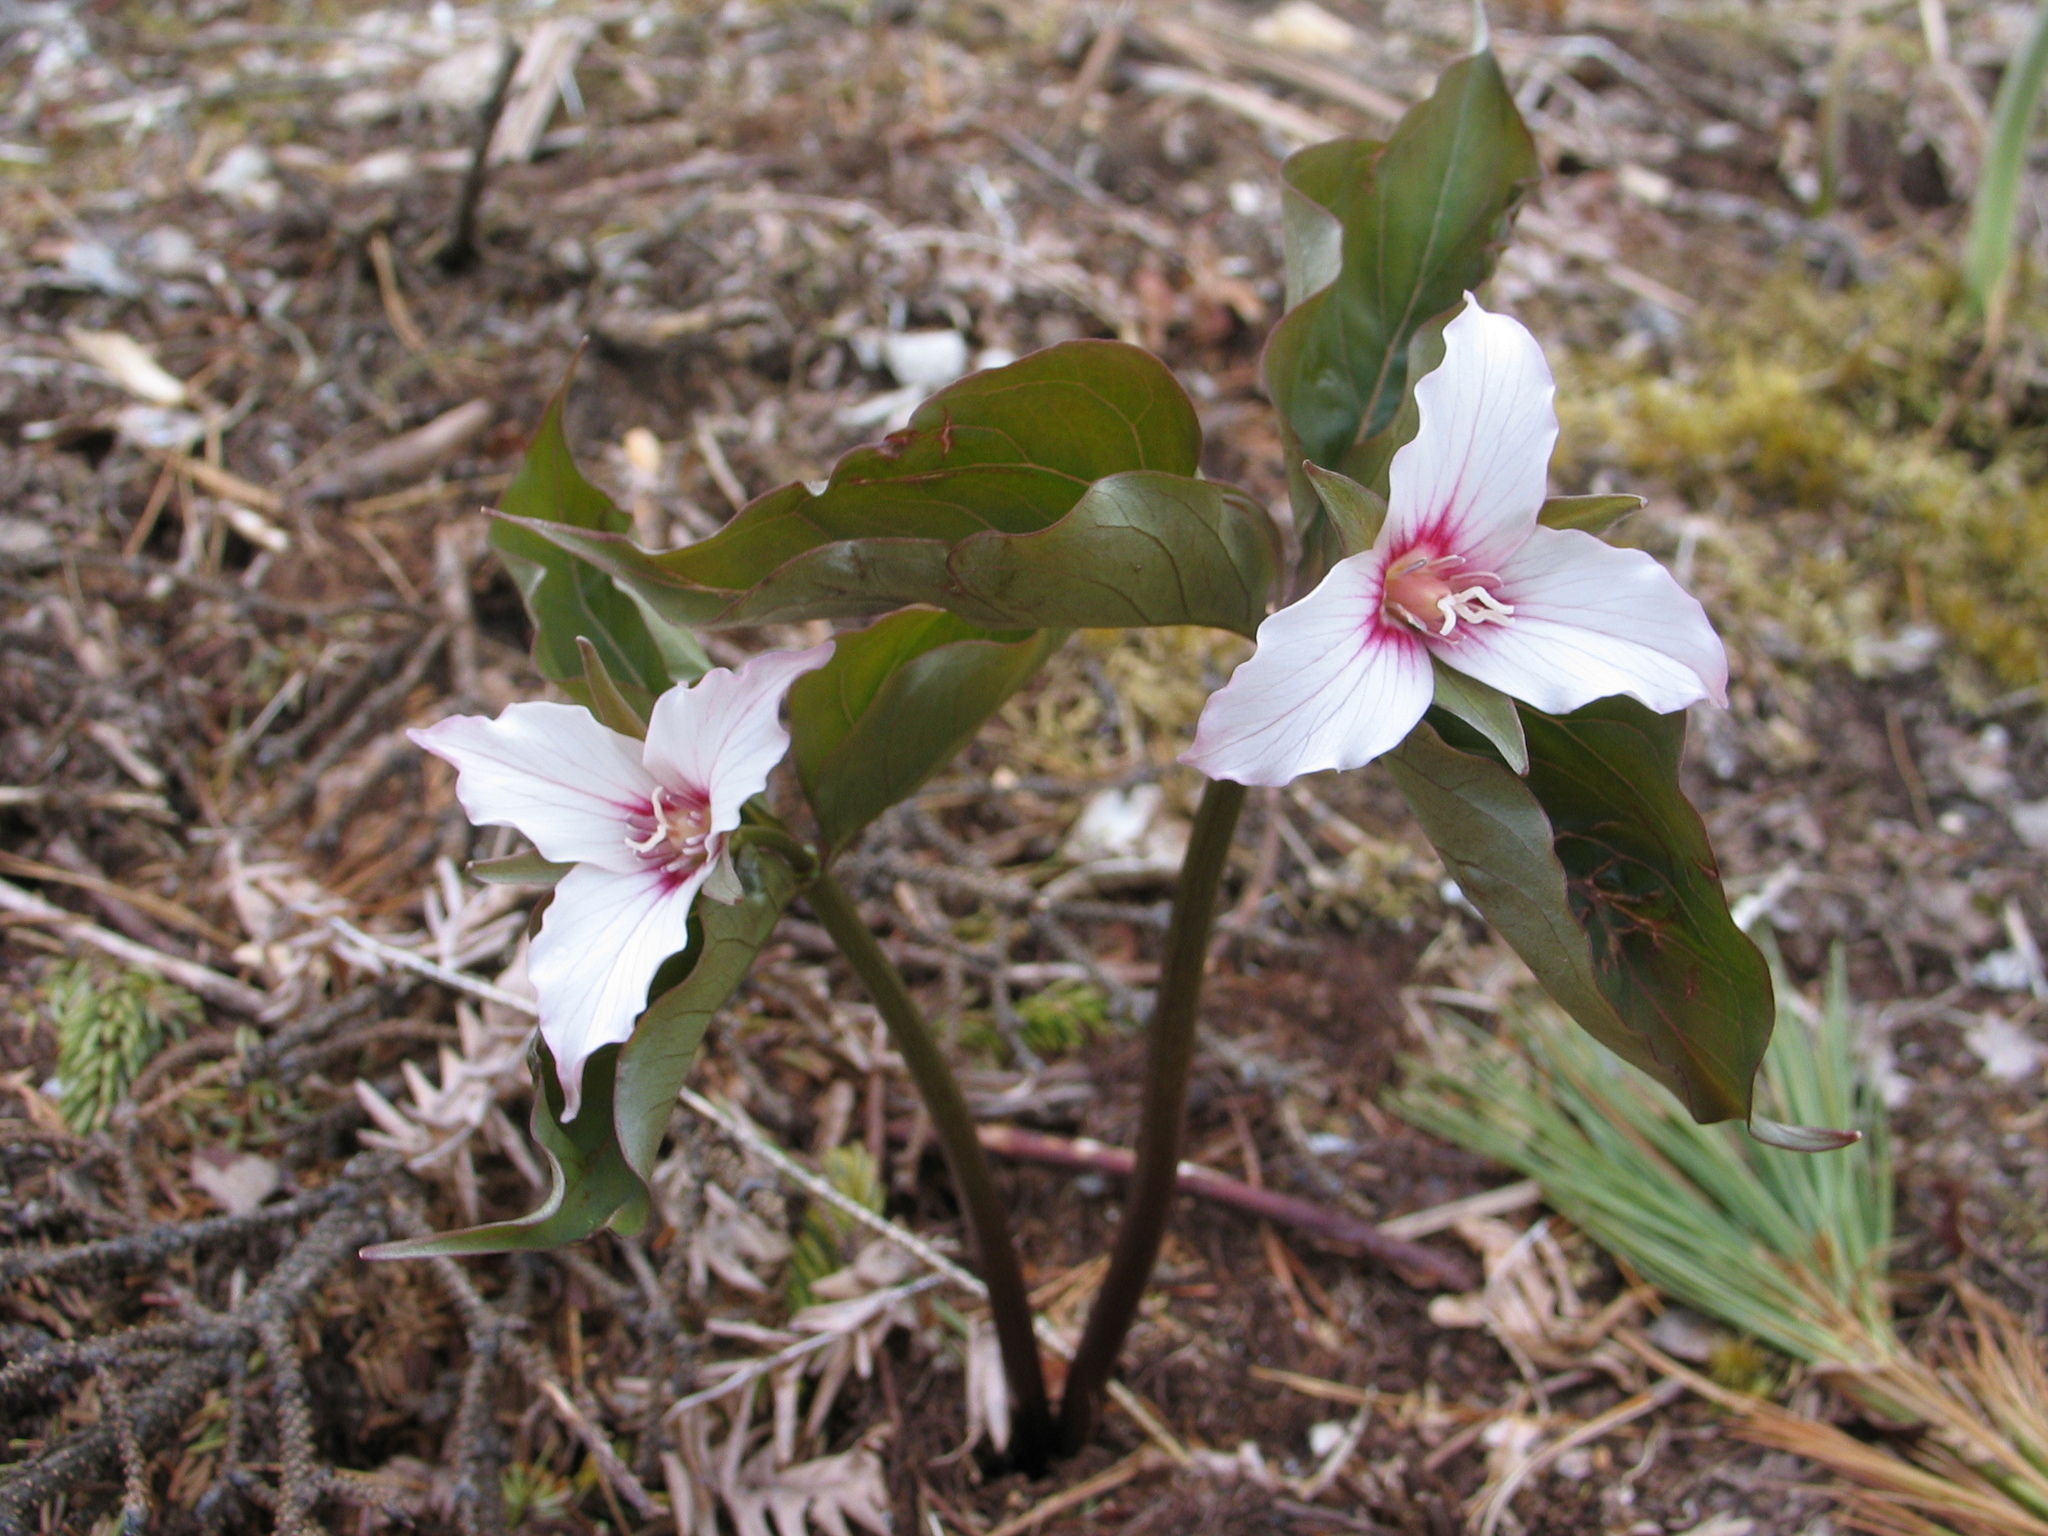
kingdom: Plantae
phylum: Tracheophyta
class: Liliopsida
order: Liliales
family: Melanthiaceae
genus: Trillium
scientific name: Trillium undulatum
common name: Paint trillium
